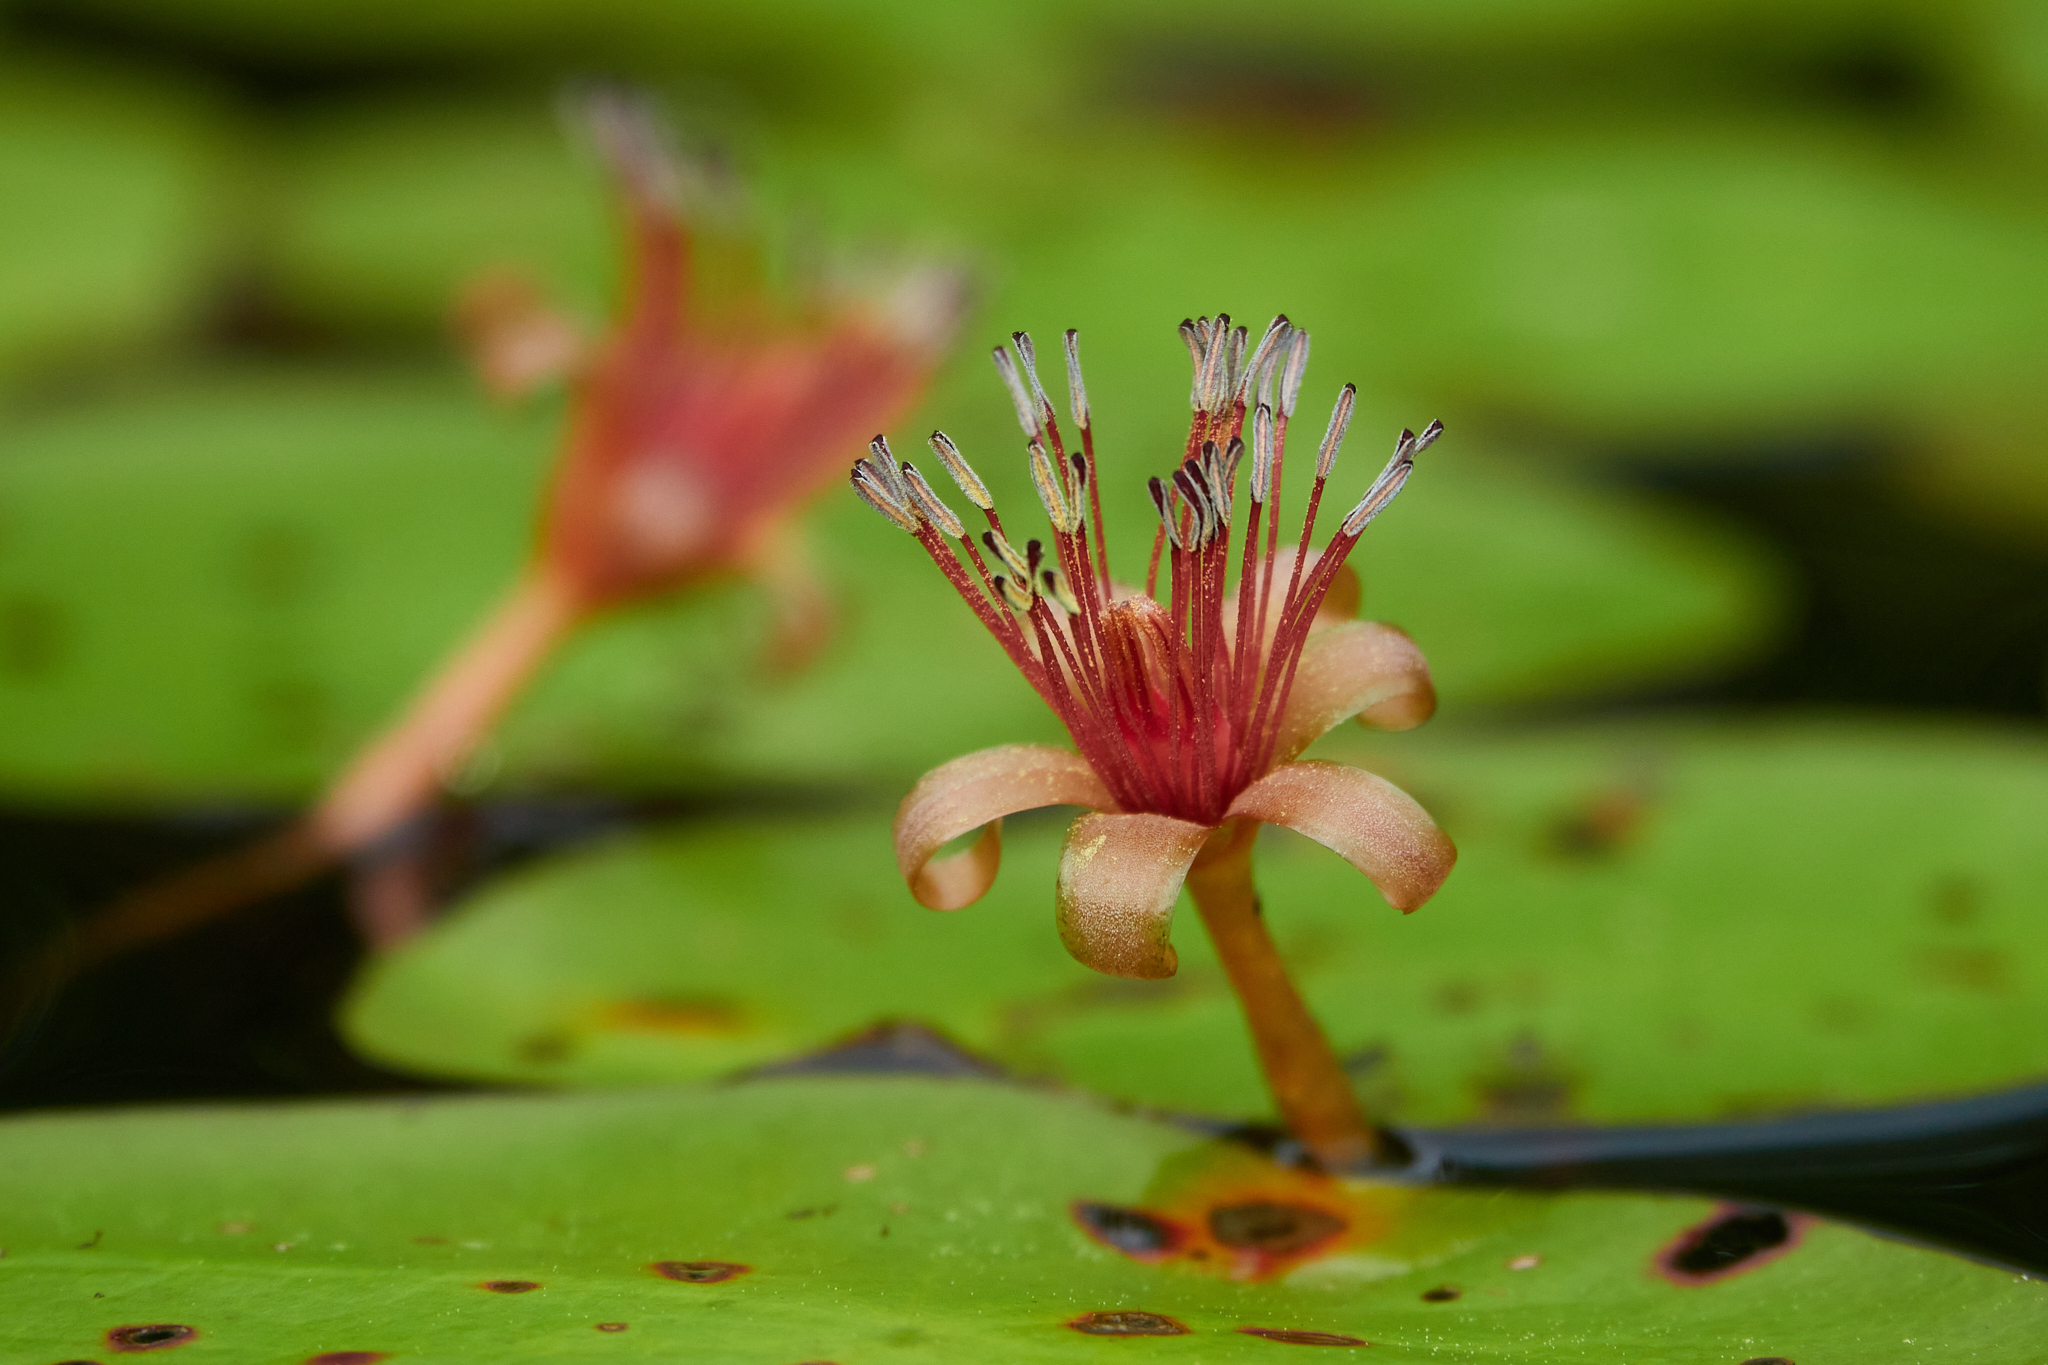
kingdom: Plantae
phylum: Tracheophyta
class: Magnoliopsida
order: Nymphaeales
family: Cabombaceae
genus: Brasenia
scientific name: Brasenia schreberi
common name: Water-shield
